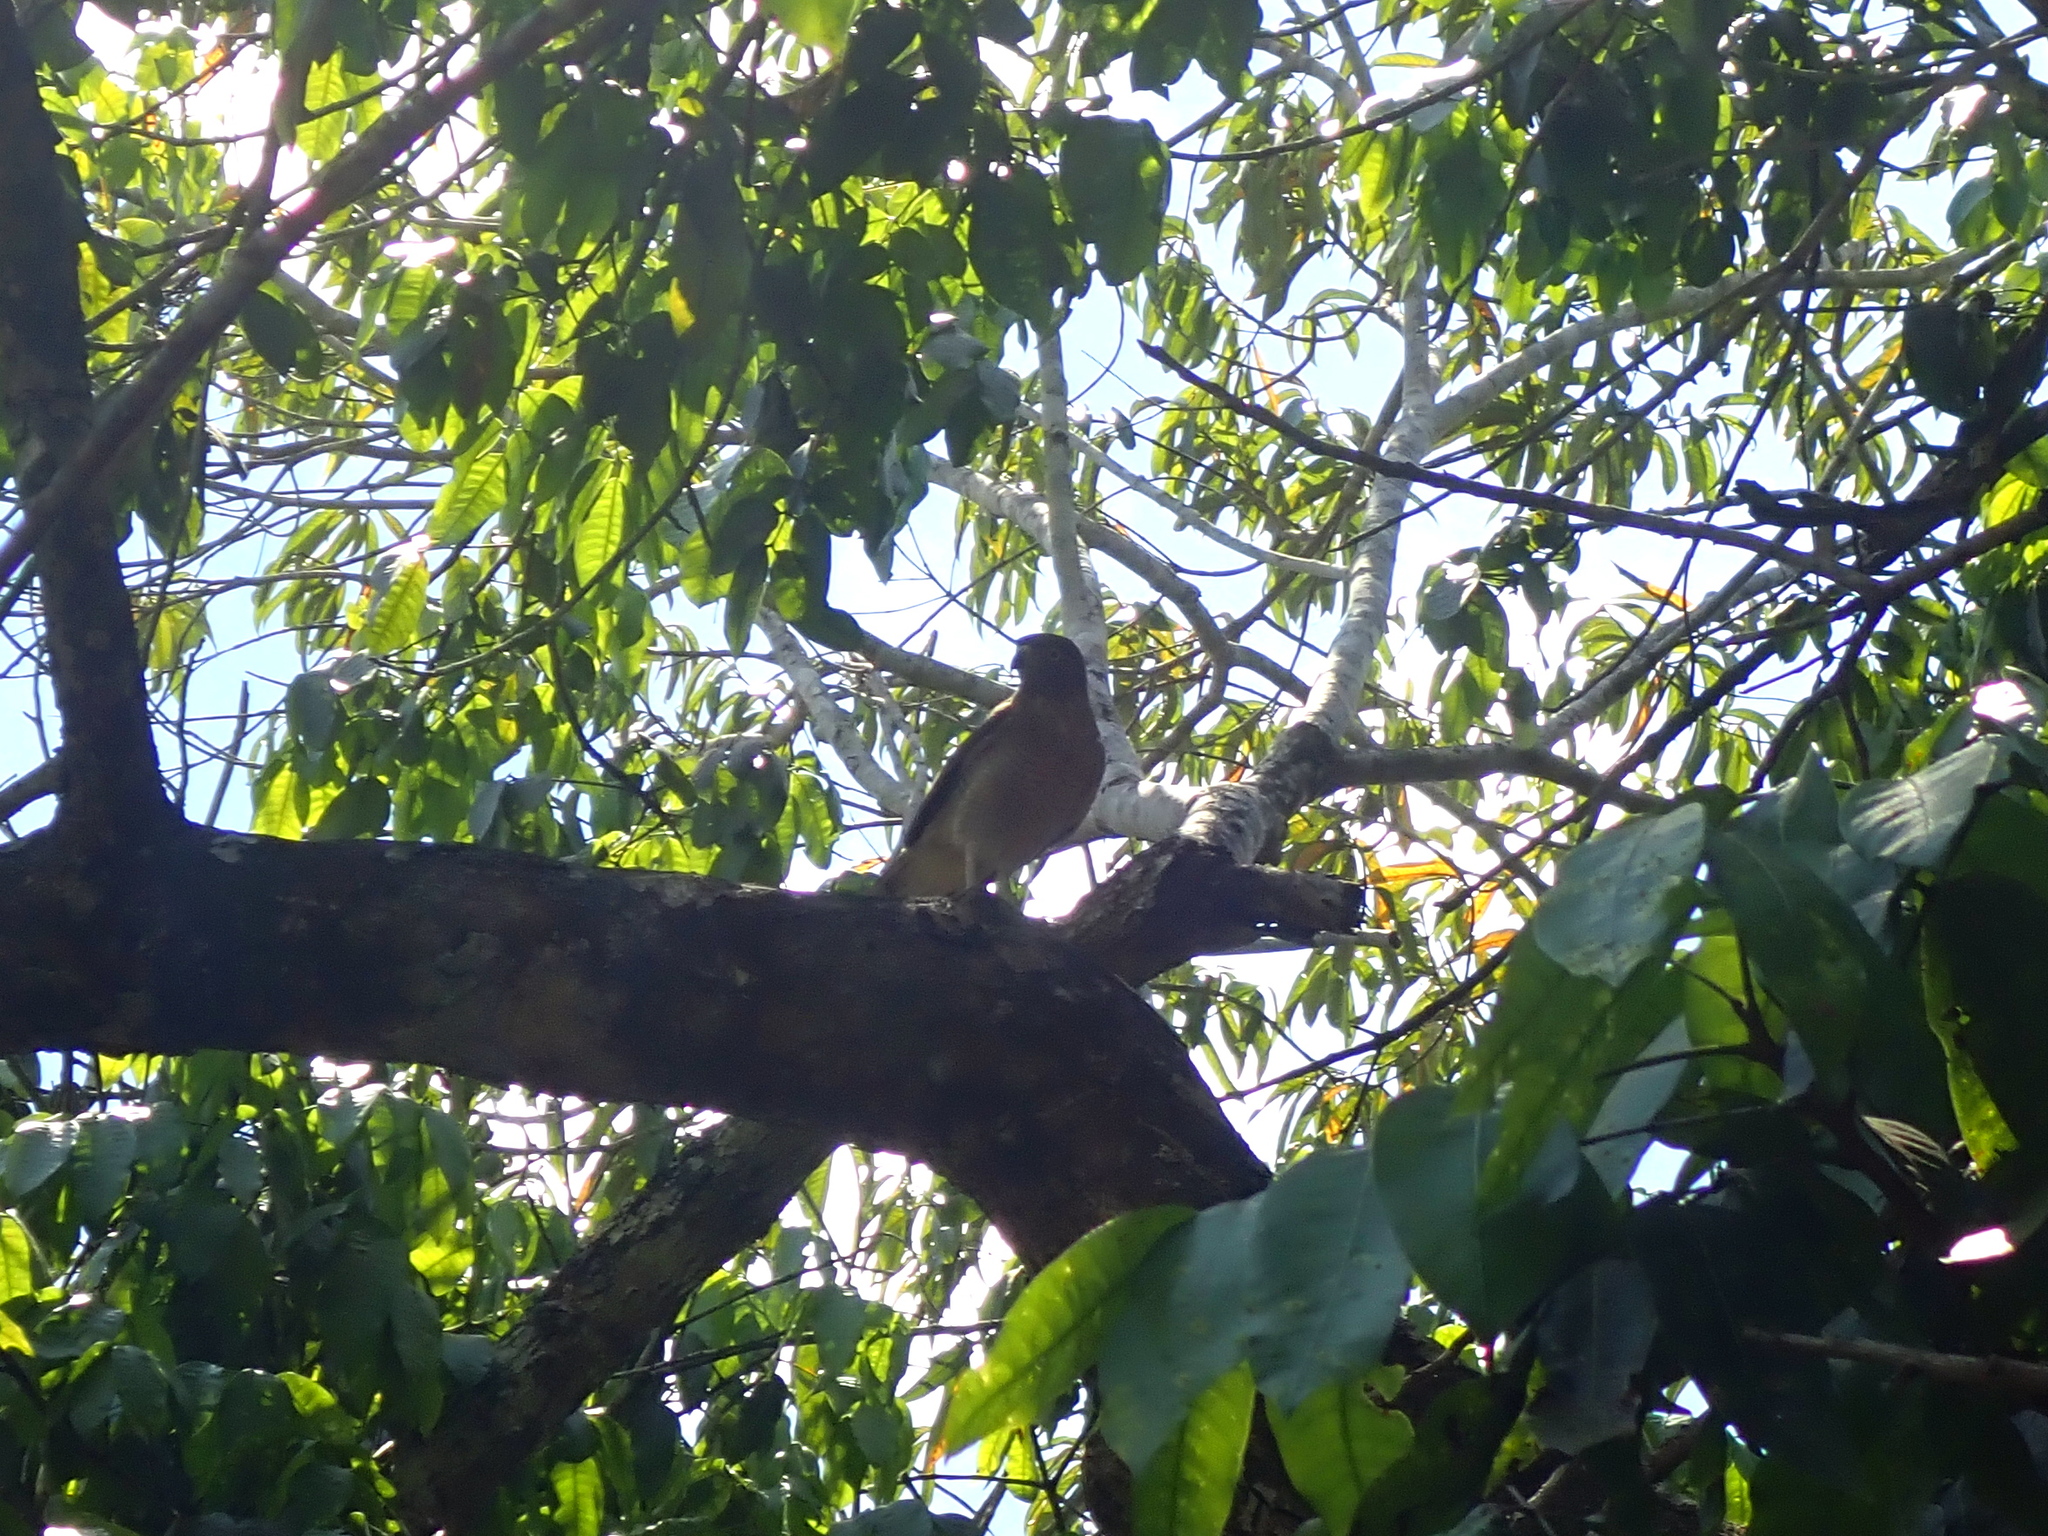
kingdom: Animalia
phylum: Chordata
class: Aves
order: Accipitriformes
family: Accipitridae
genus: Rupornis
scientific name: Rupornis magnirostris
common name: Roadside hawk
